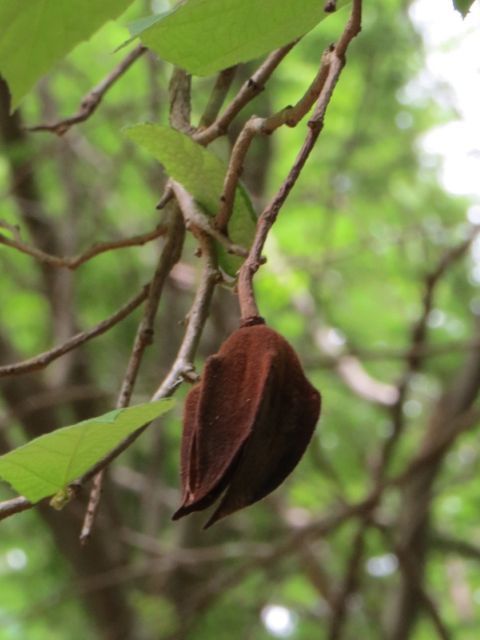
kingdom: Plantae
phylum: Tracheophyta
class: Magnoliopsida
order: Malvales
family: Malvaceae
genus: Luehea
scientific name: Luehea speciosa
